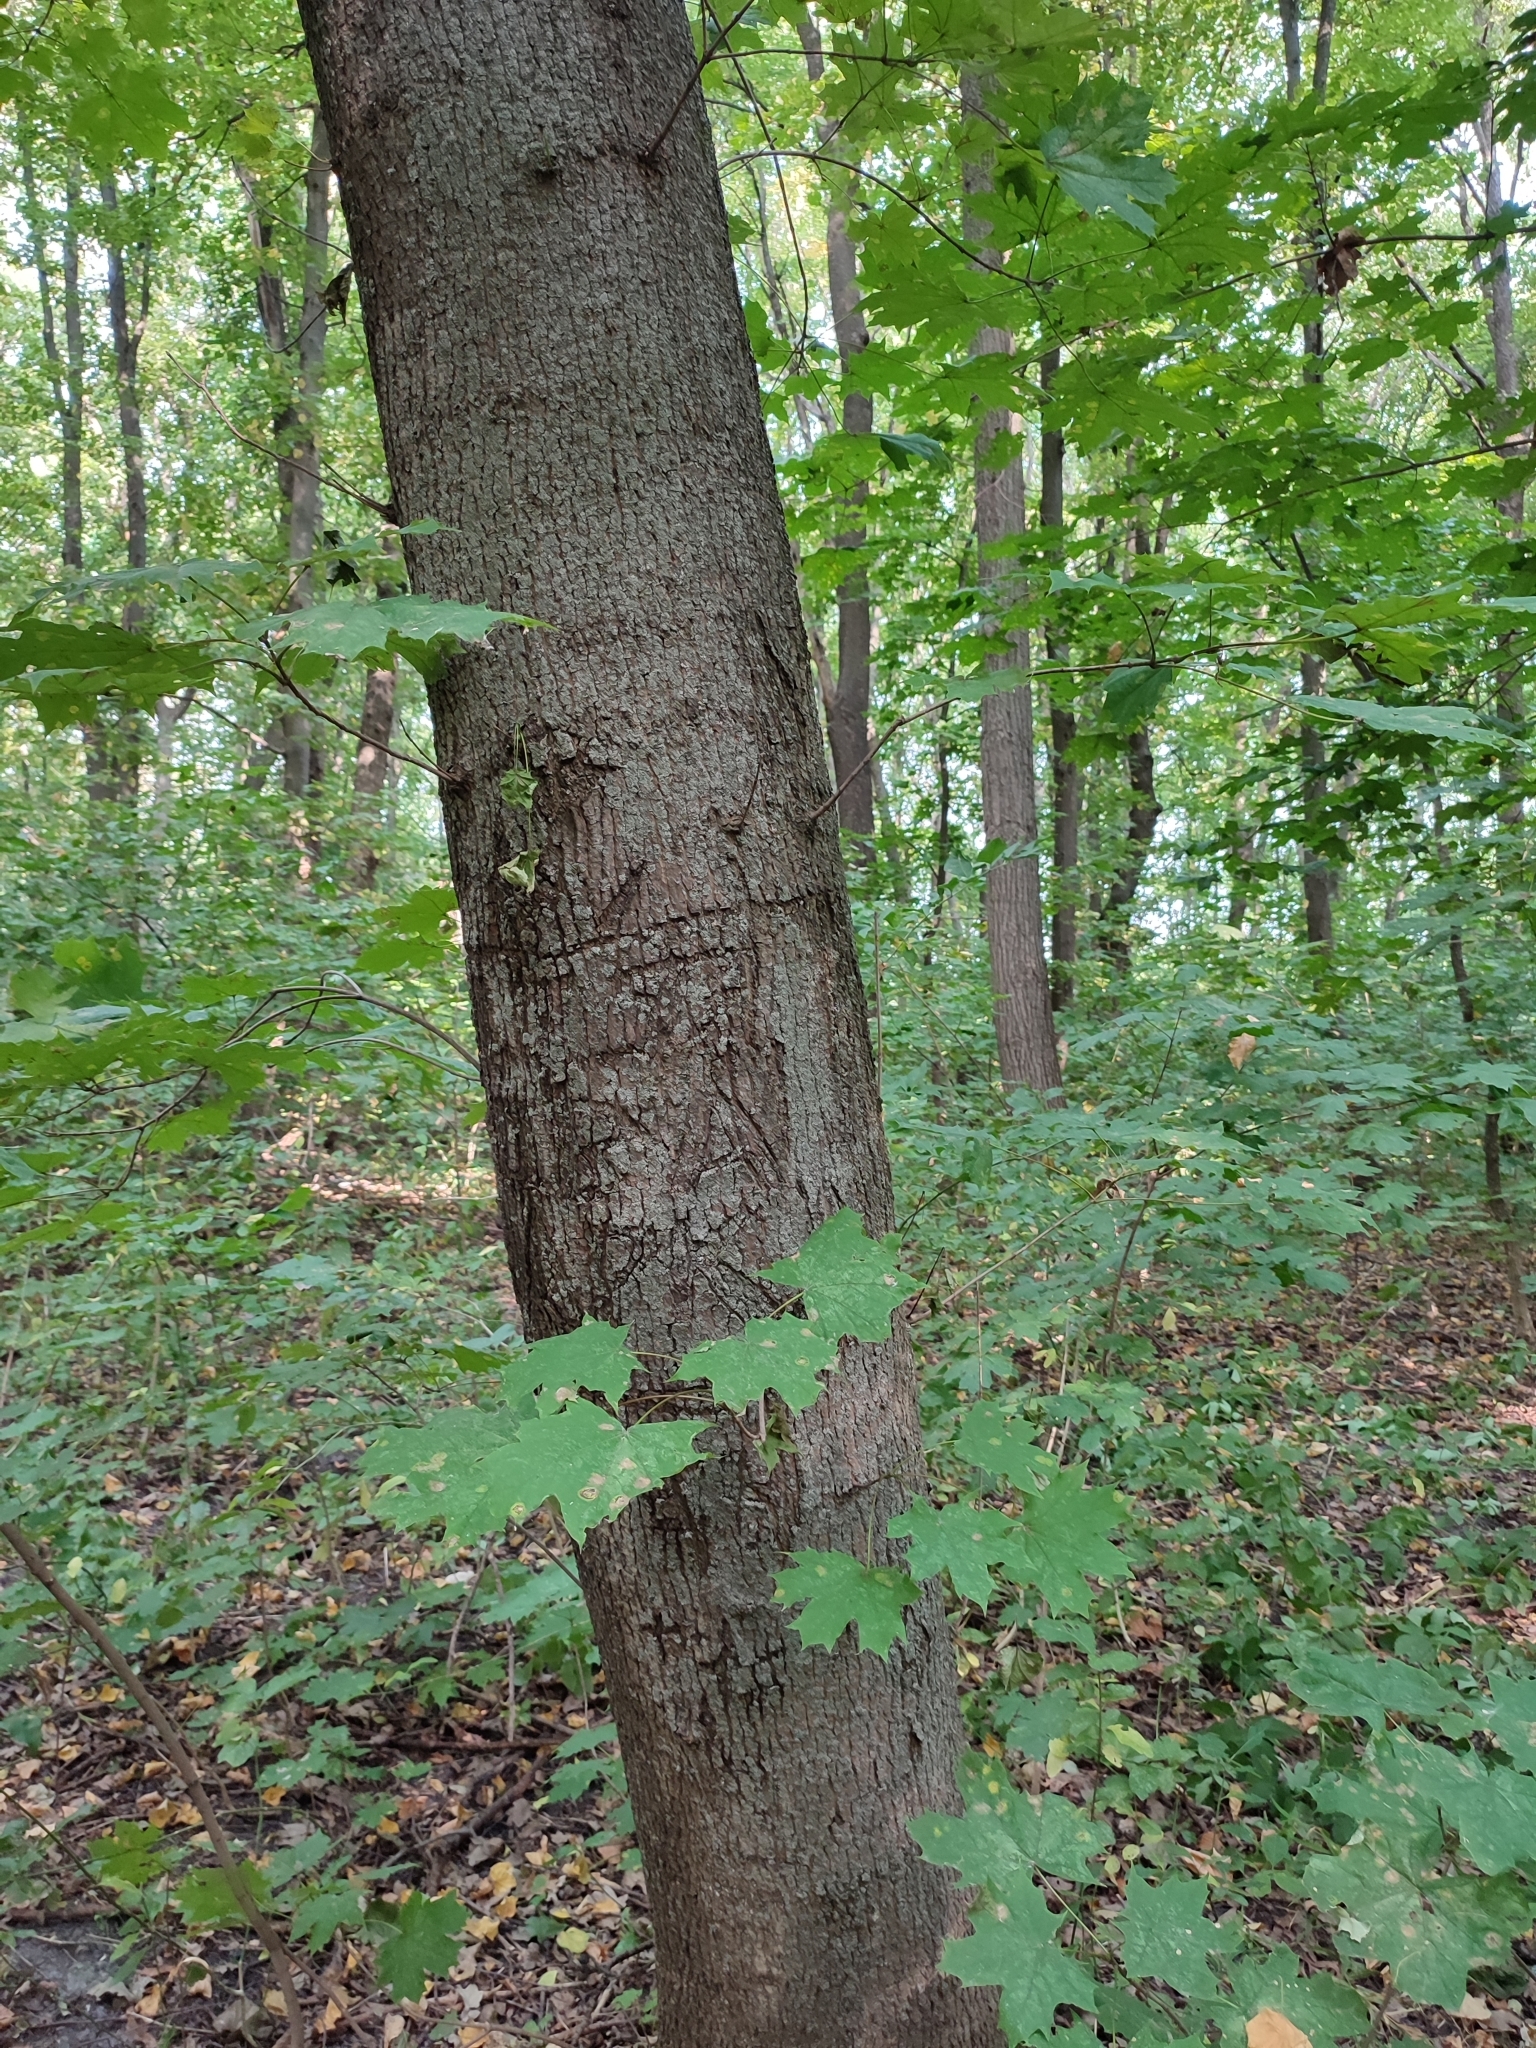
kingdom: Plantae
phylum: Tracheophyta
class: Magnoliopsida
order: Sapindales
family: Sapindaceae
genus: Acer
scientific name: Acer platanoides
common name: Norway maple
